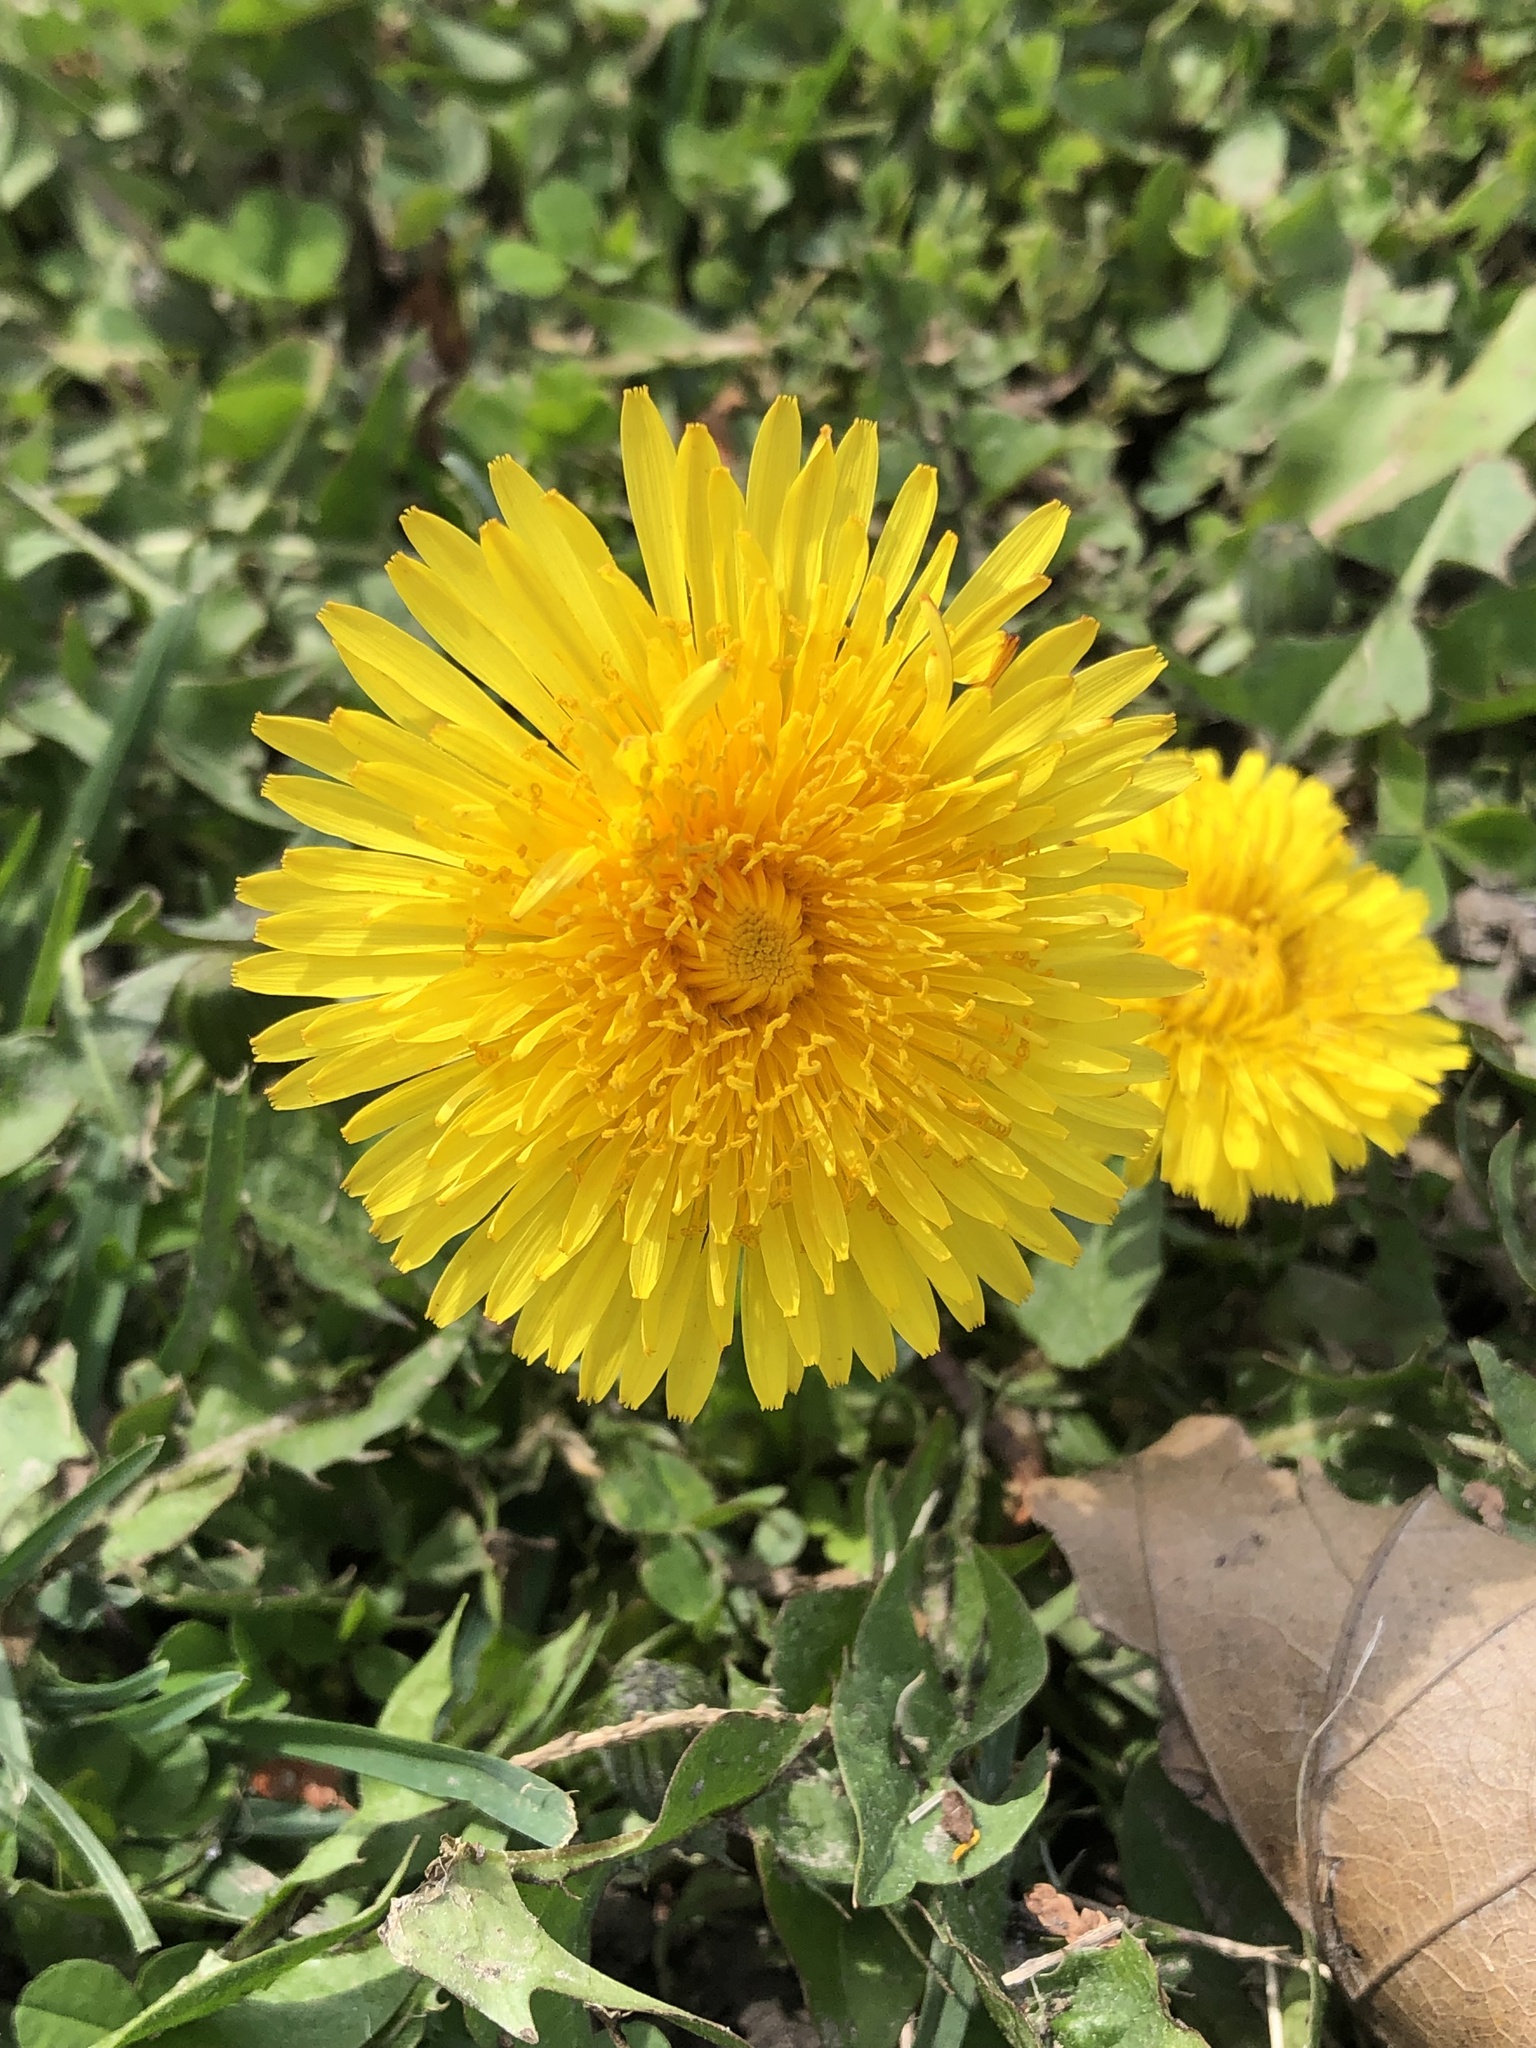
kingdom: Plantae
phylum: Tracheophyta
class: Magnoliopsida
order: Asterales
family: Asteraceae
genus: Taraxacum
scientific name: Taraxacum officinale
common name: Common dandelion
